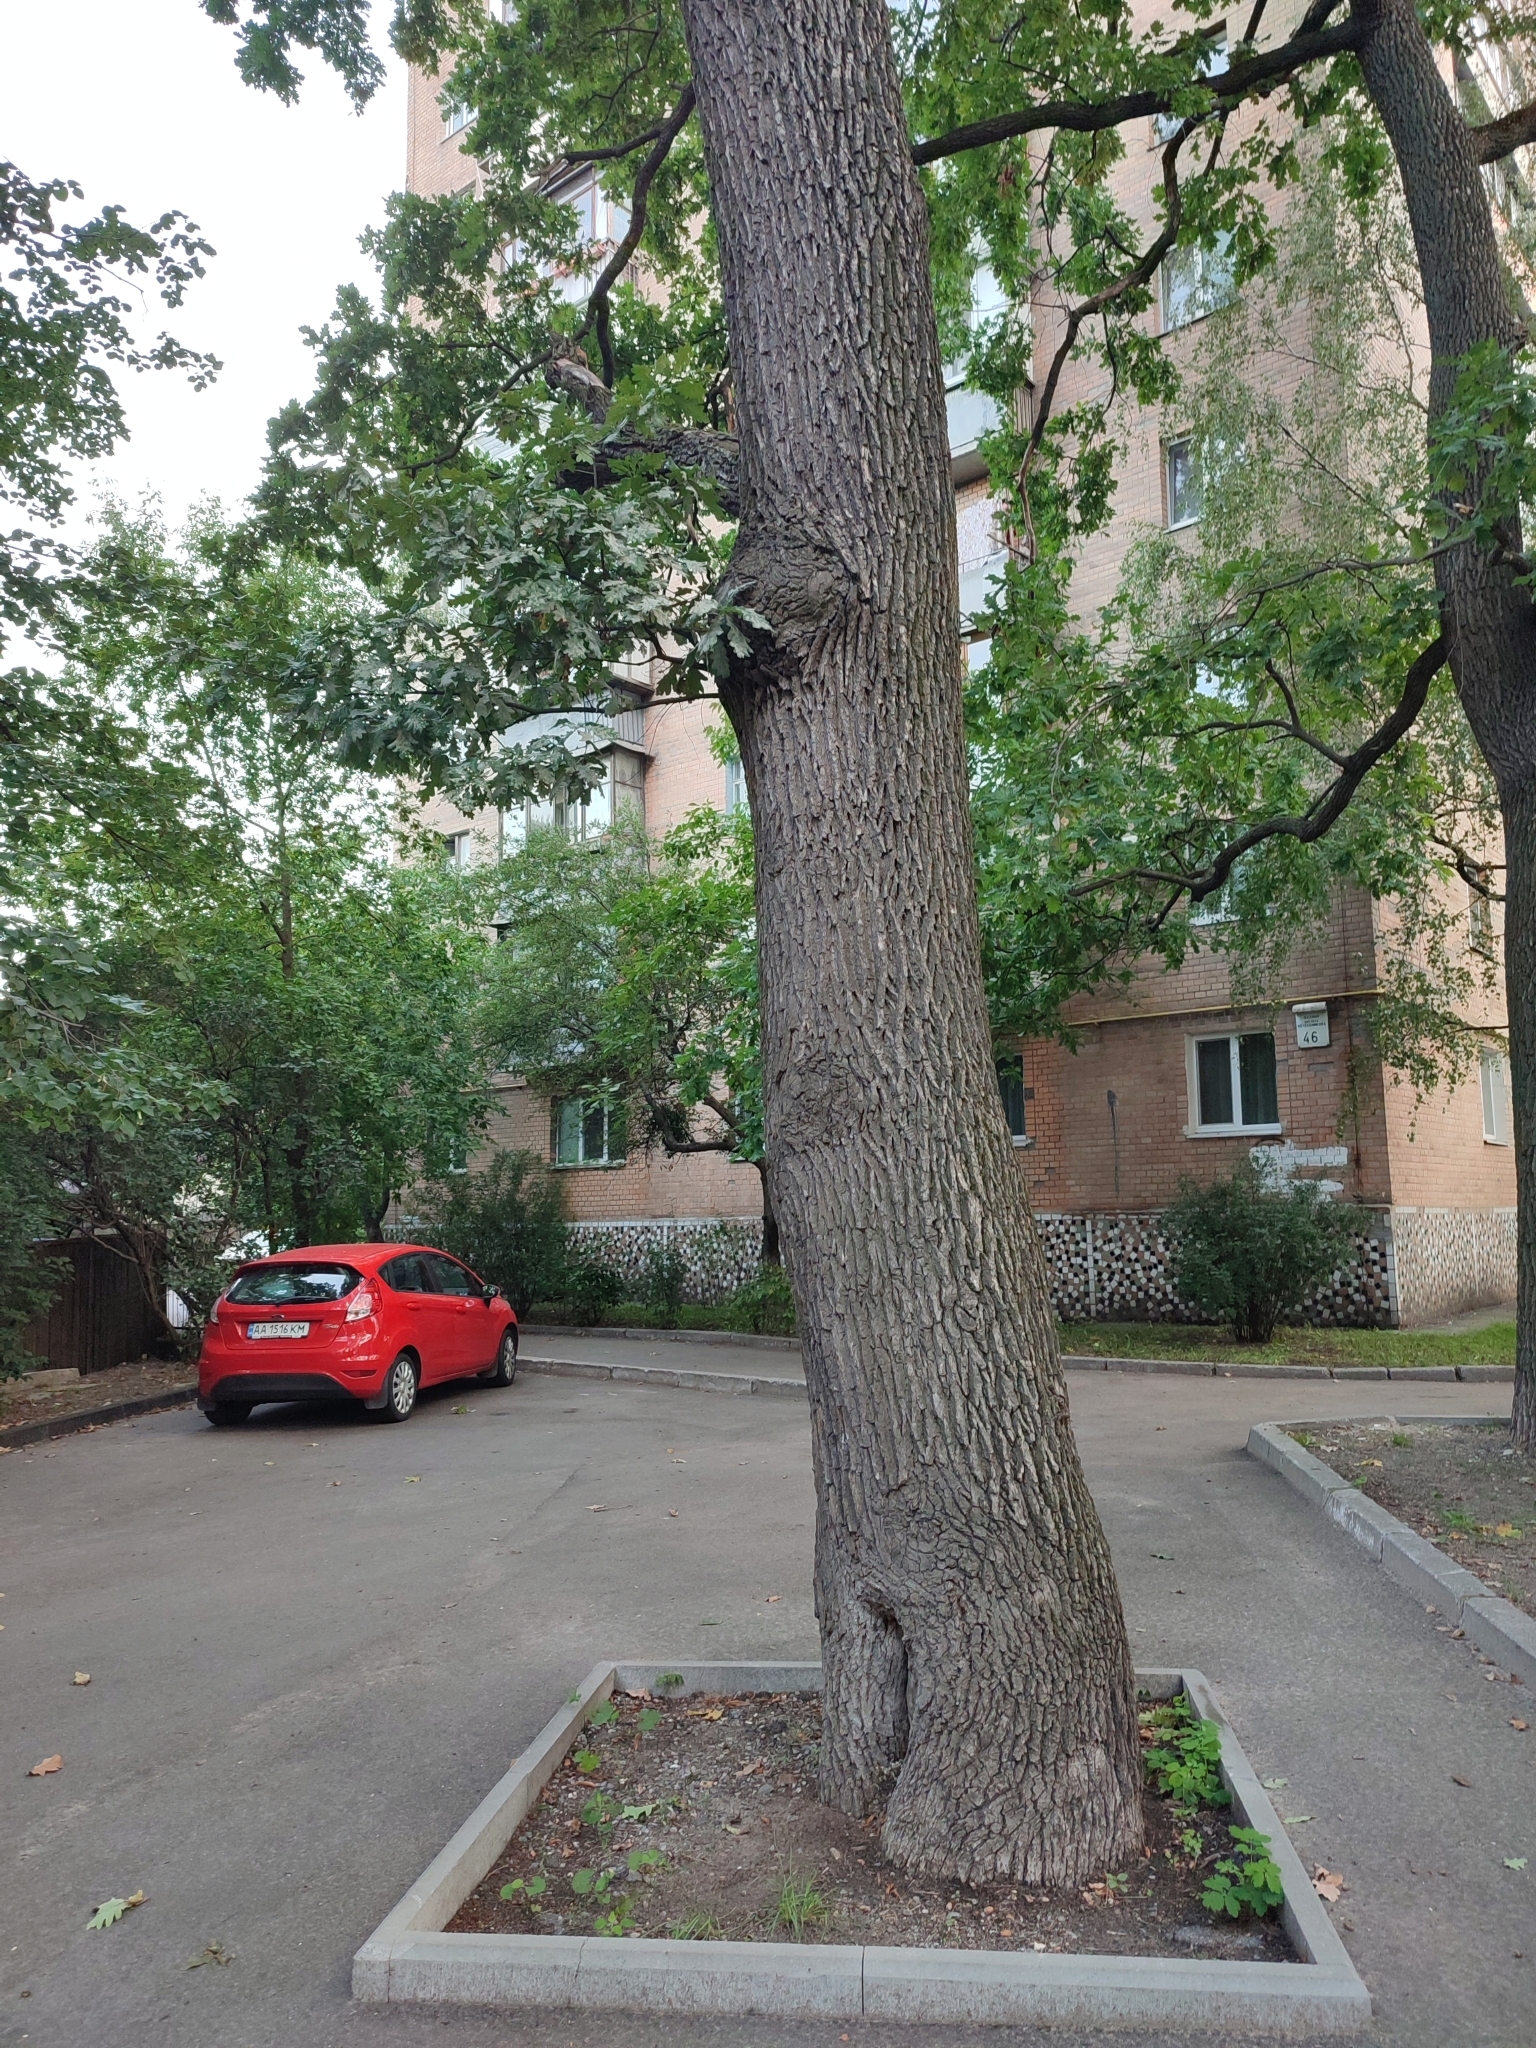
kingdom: Plantae
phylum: Tracheophyta
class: Magnoliopsida
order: Fagales
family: Fagaceae
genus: Quercus
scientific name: Quercus robur
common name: Pedunculate oak
